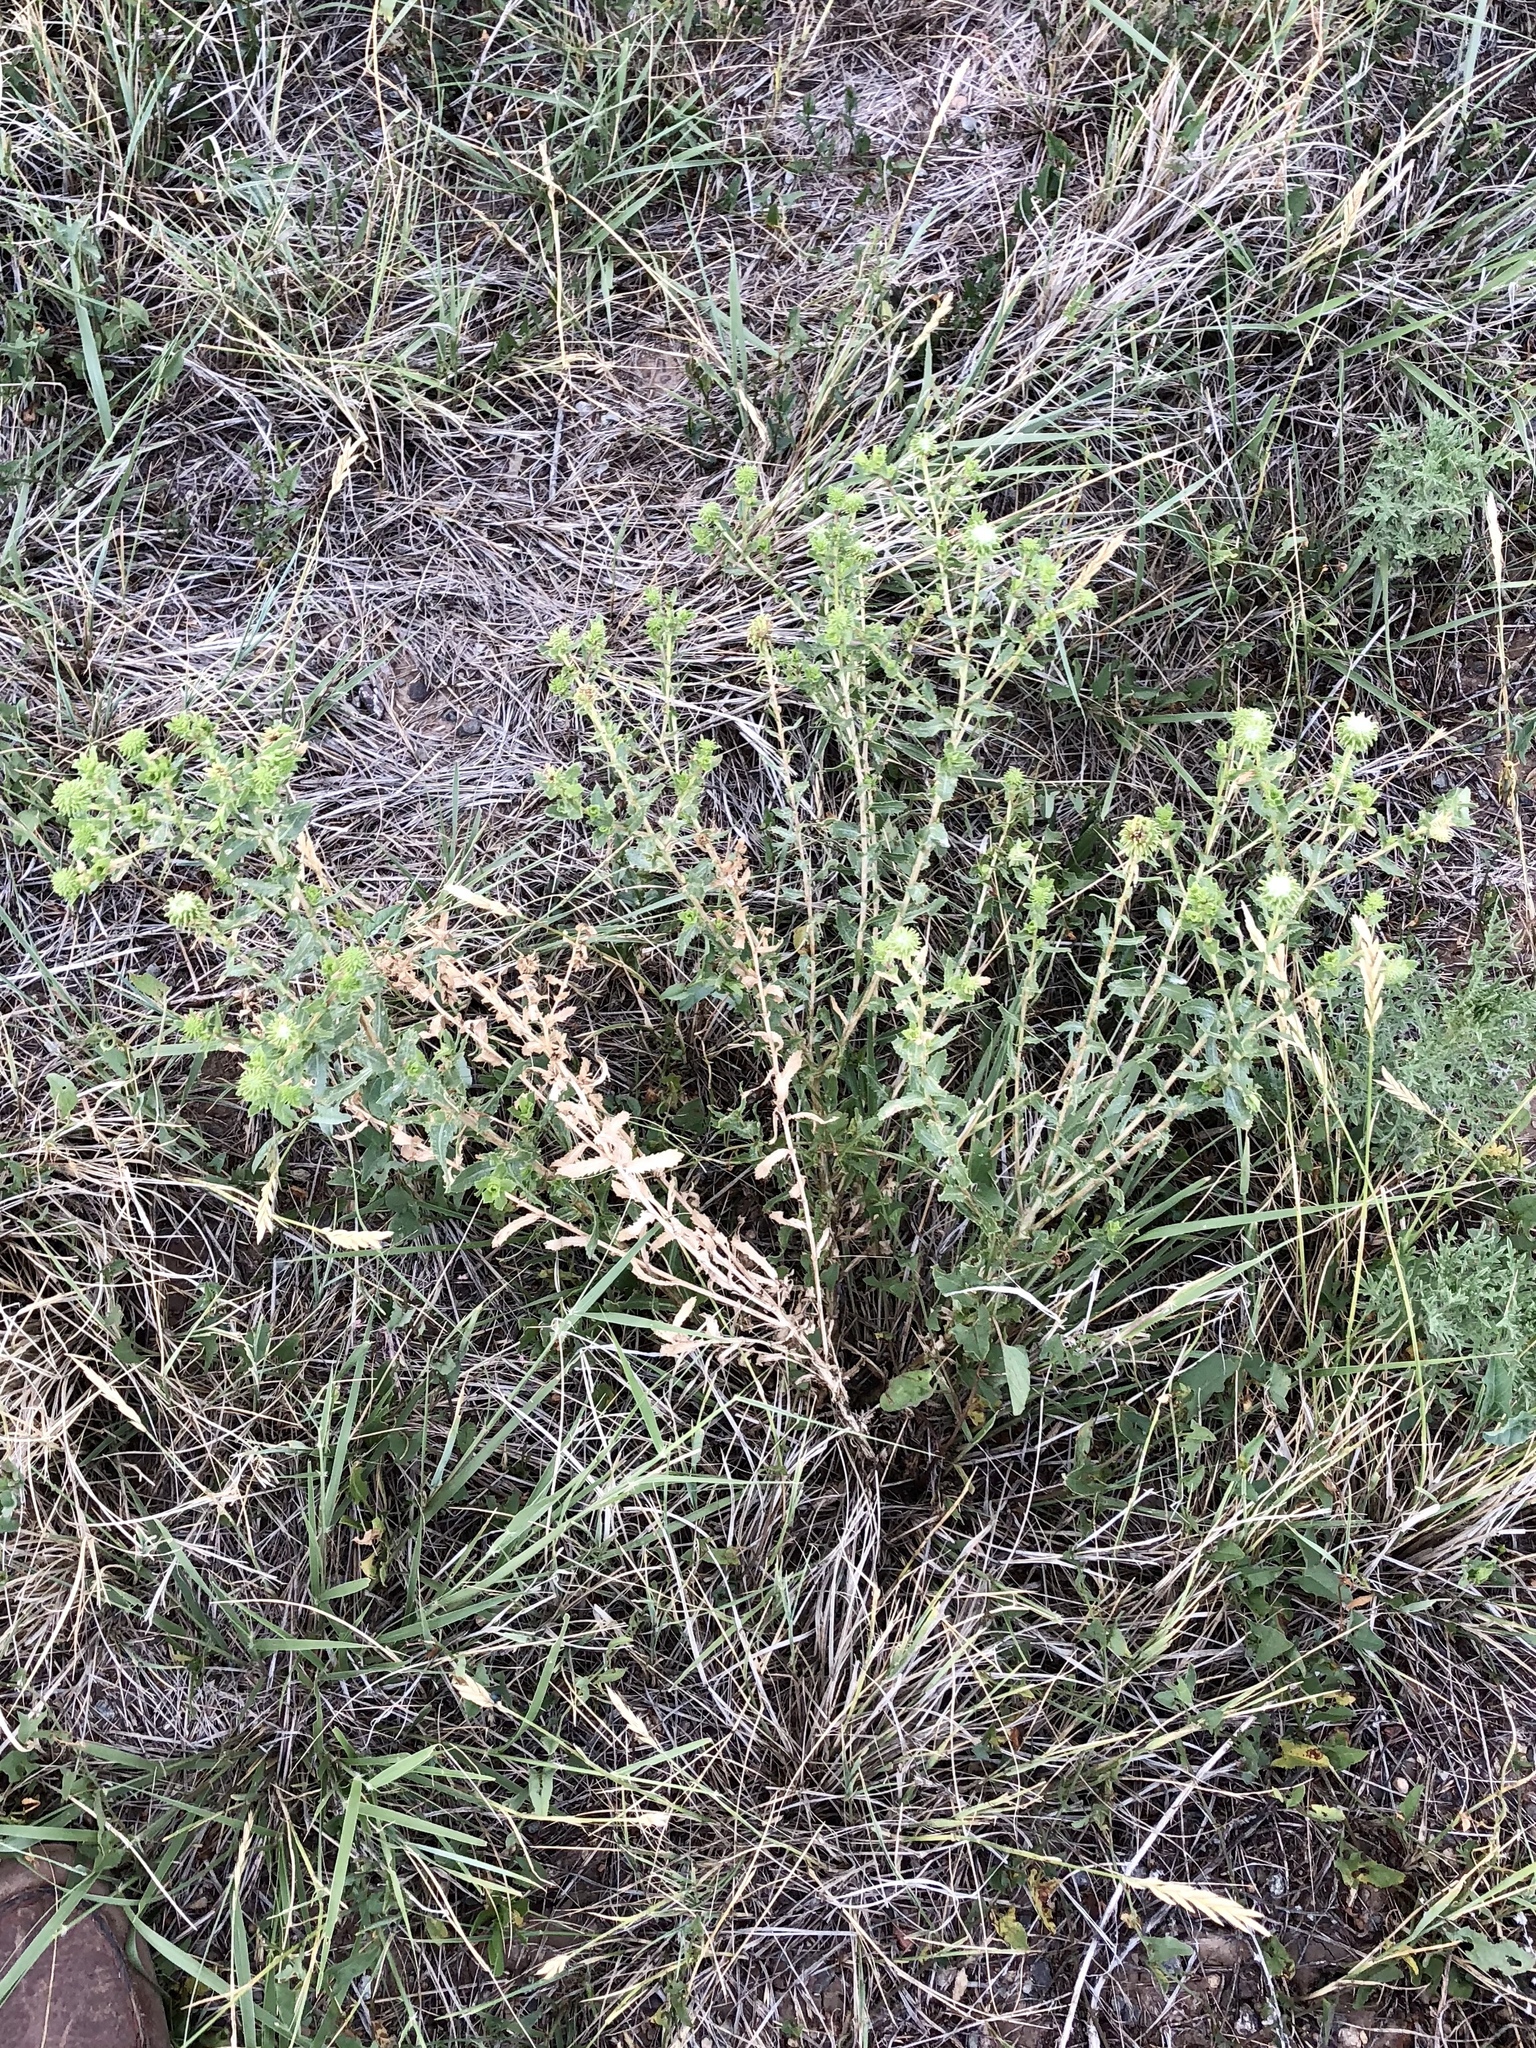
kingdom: Plantae
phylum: Tracheophyta
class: Magnoliopsida
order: Asterales
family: Asteraceae
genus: Grindelia
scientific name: Grindelia squarrosa
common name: Curly-cup gumweed
